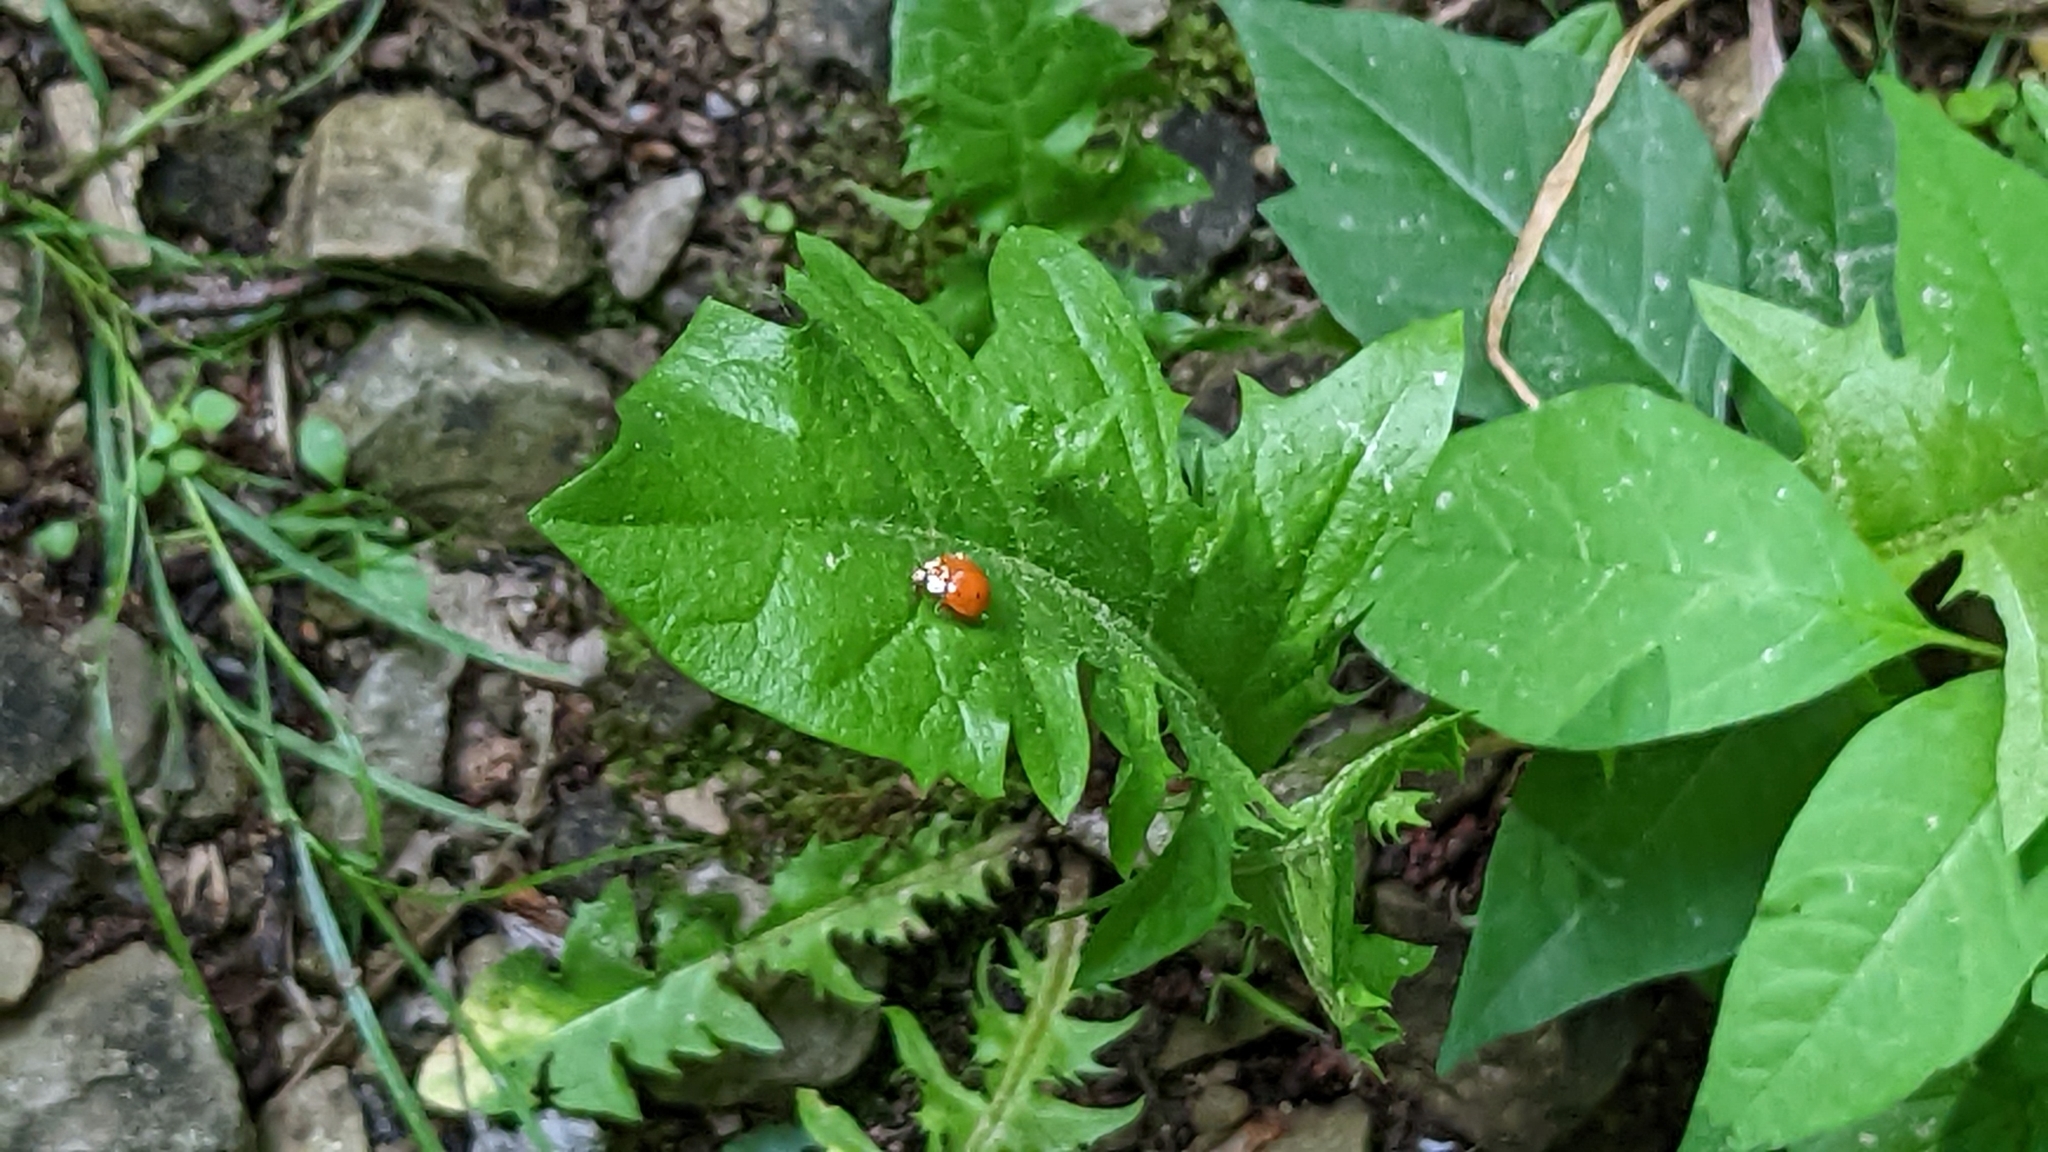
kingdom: Animalia
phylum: Arthropoda
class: Insecta
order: Coleoptera
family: Coccinellidae
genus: Harmonia
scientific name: Harmonia axyridis
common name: Harlequin ladybird
